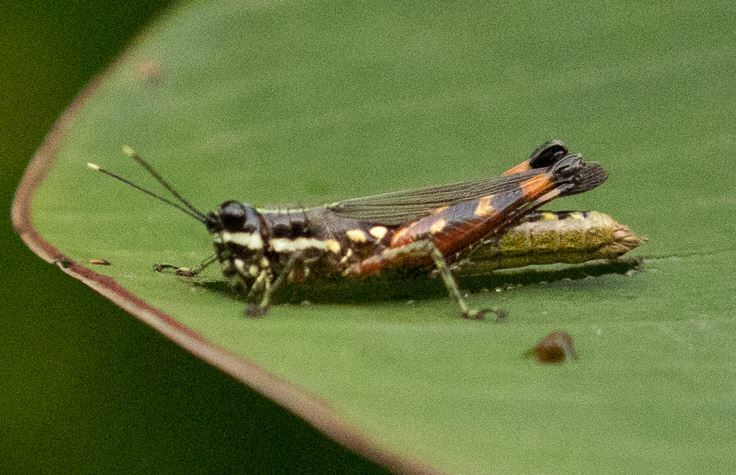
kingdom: Animalia
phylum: Arthropoda
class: Insecta
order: Orthoptera
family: Acrididae
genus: Tetrataenia
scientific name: Tetrataenia surinama
